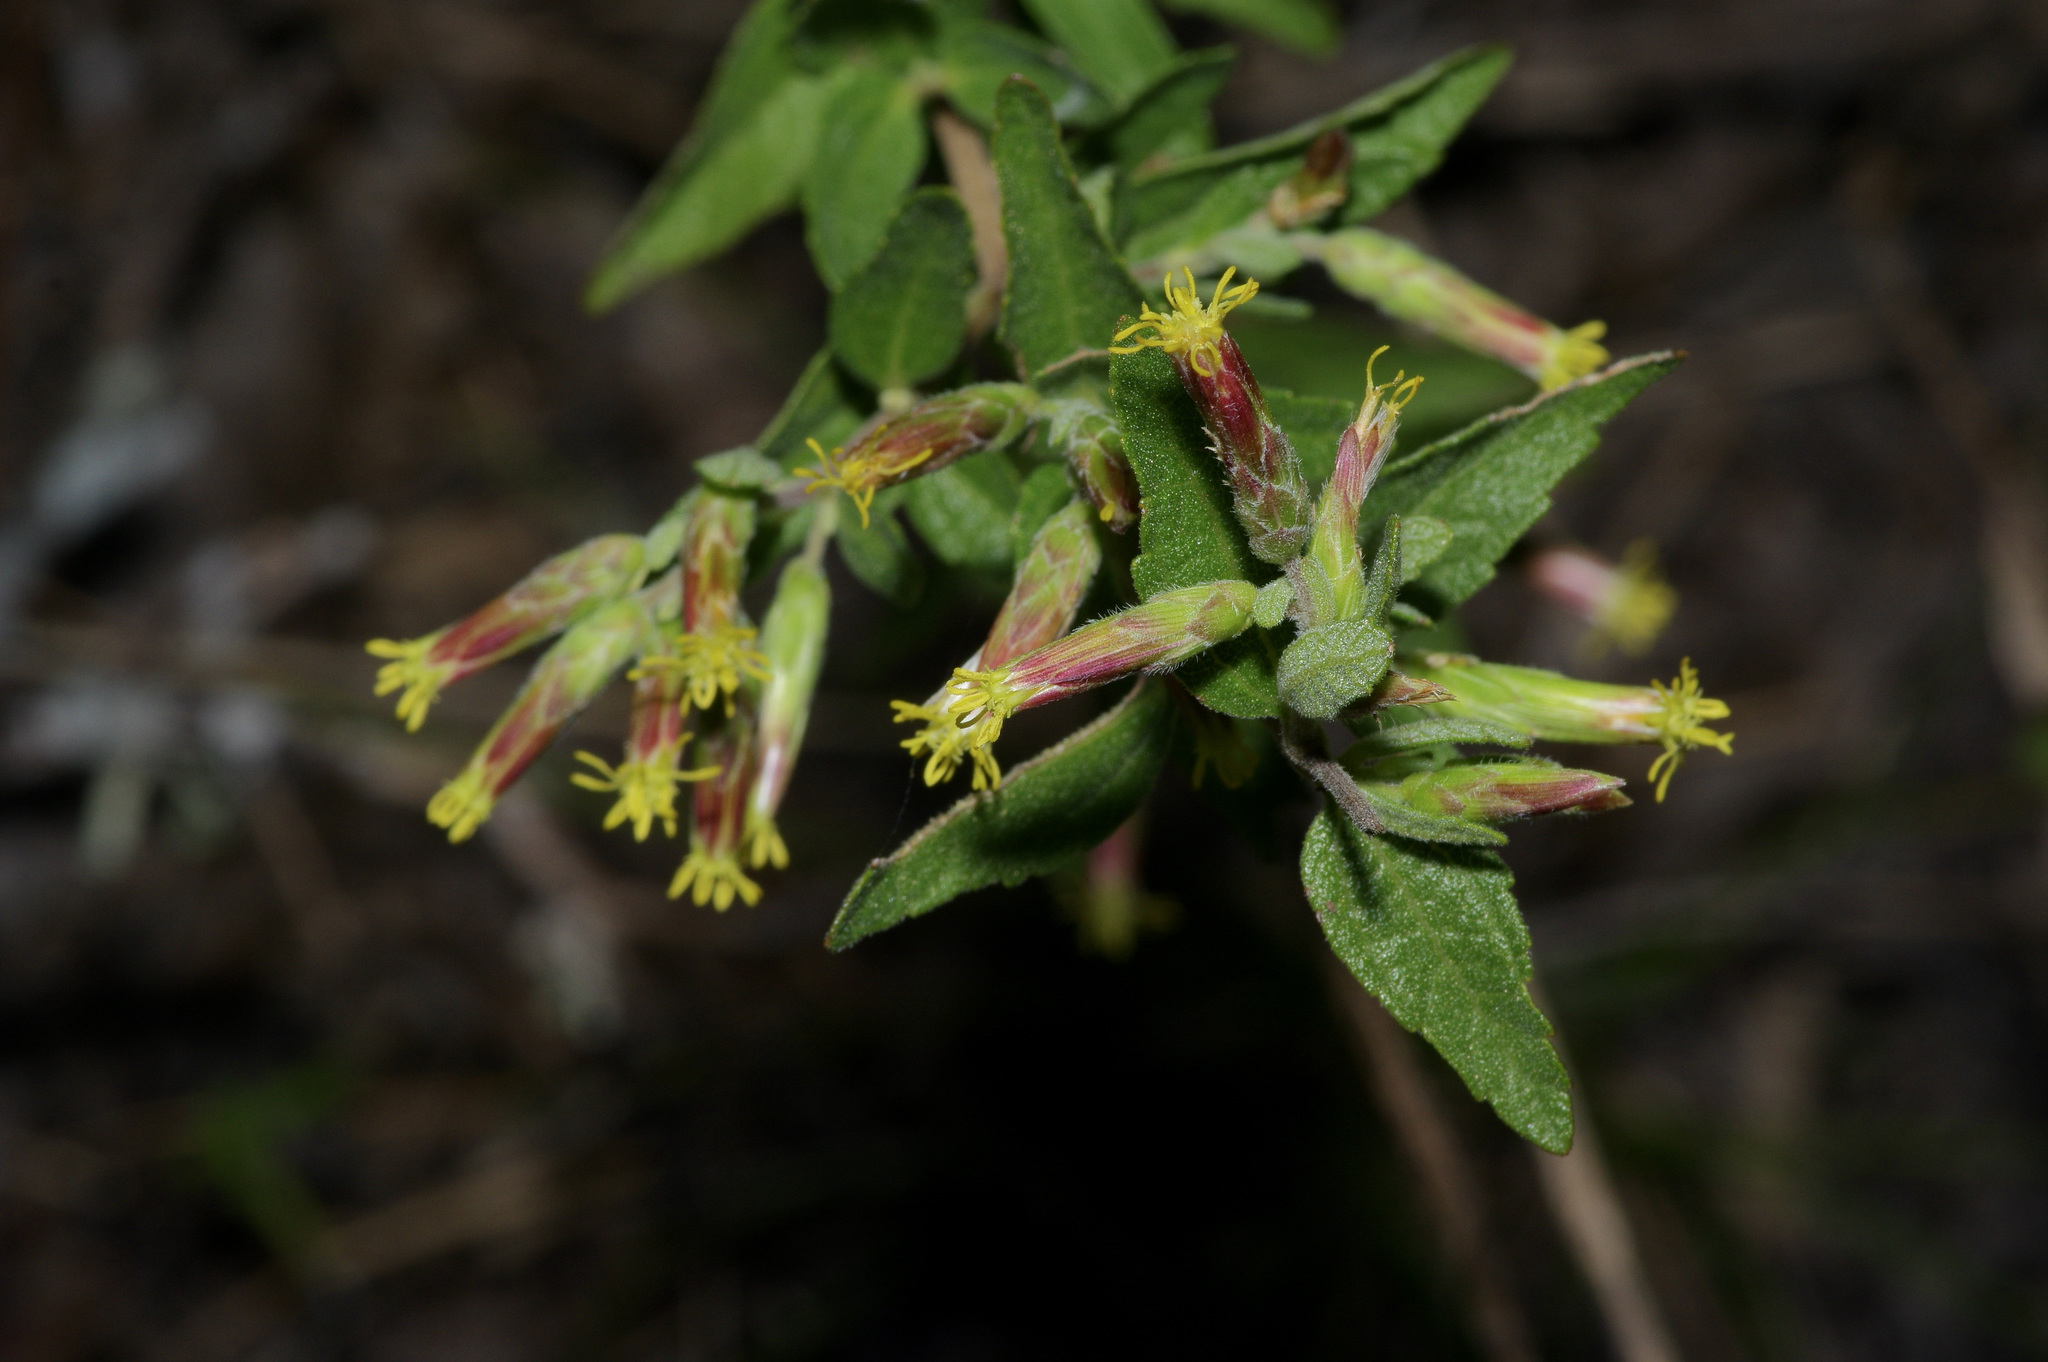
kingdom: Plantae
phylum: Tracheophyta
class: Magnoliopsida
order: Asterales
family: Asteraceae
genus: Brickellia
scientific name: Brickellia cylindracea
